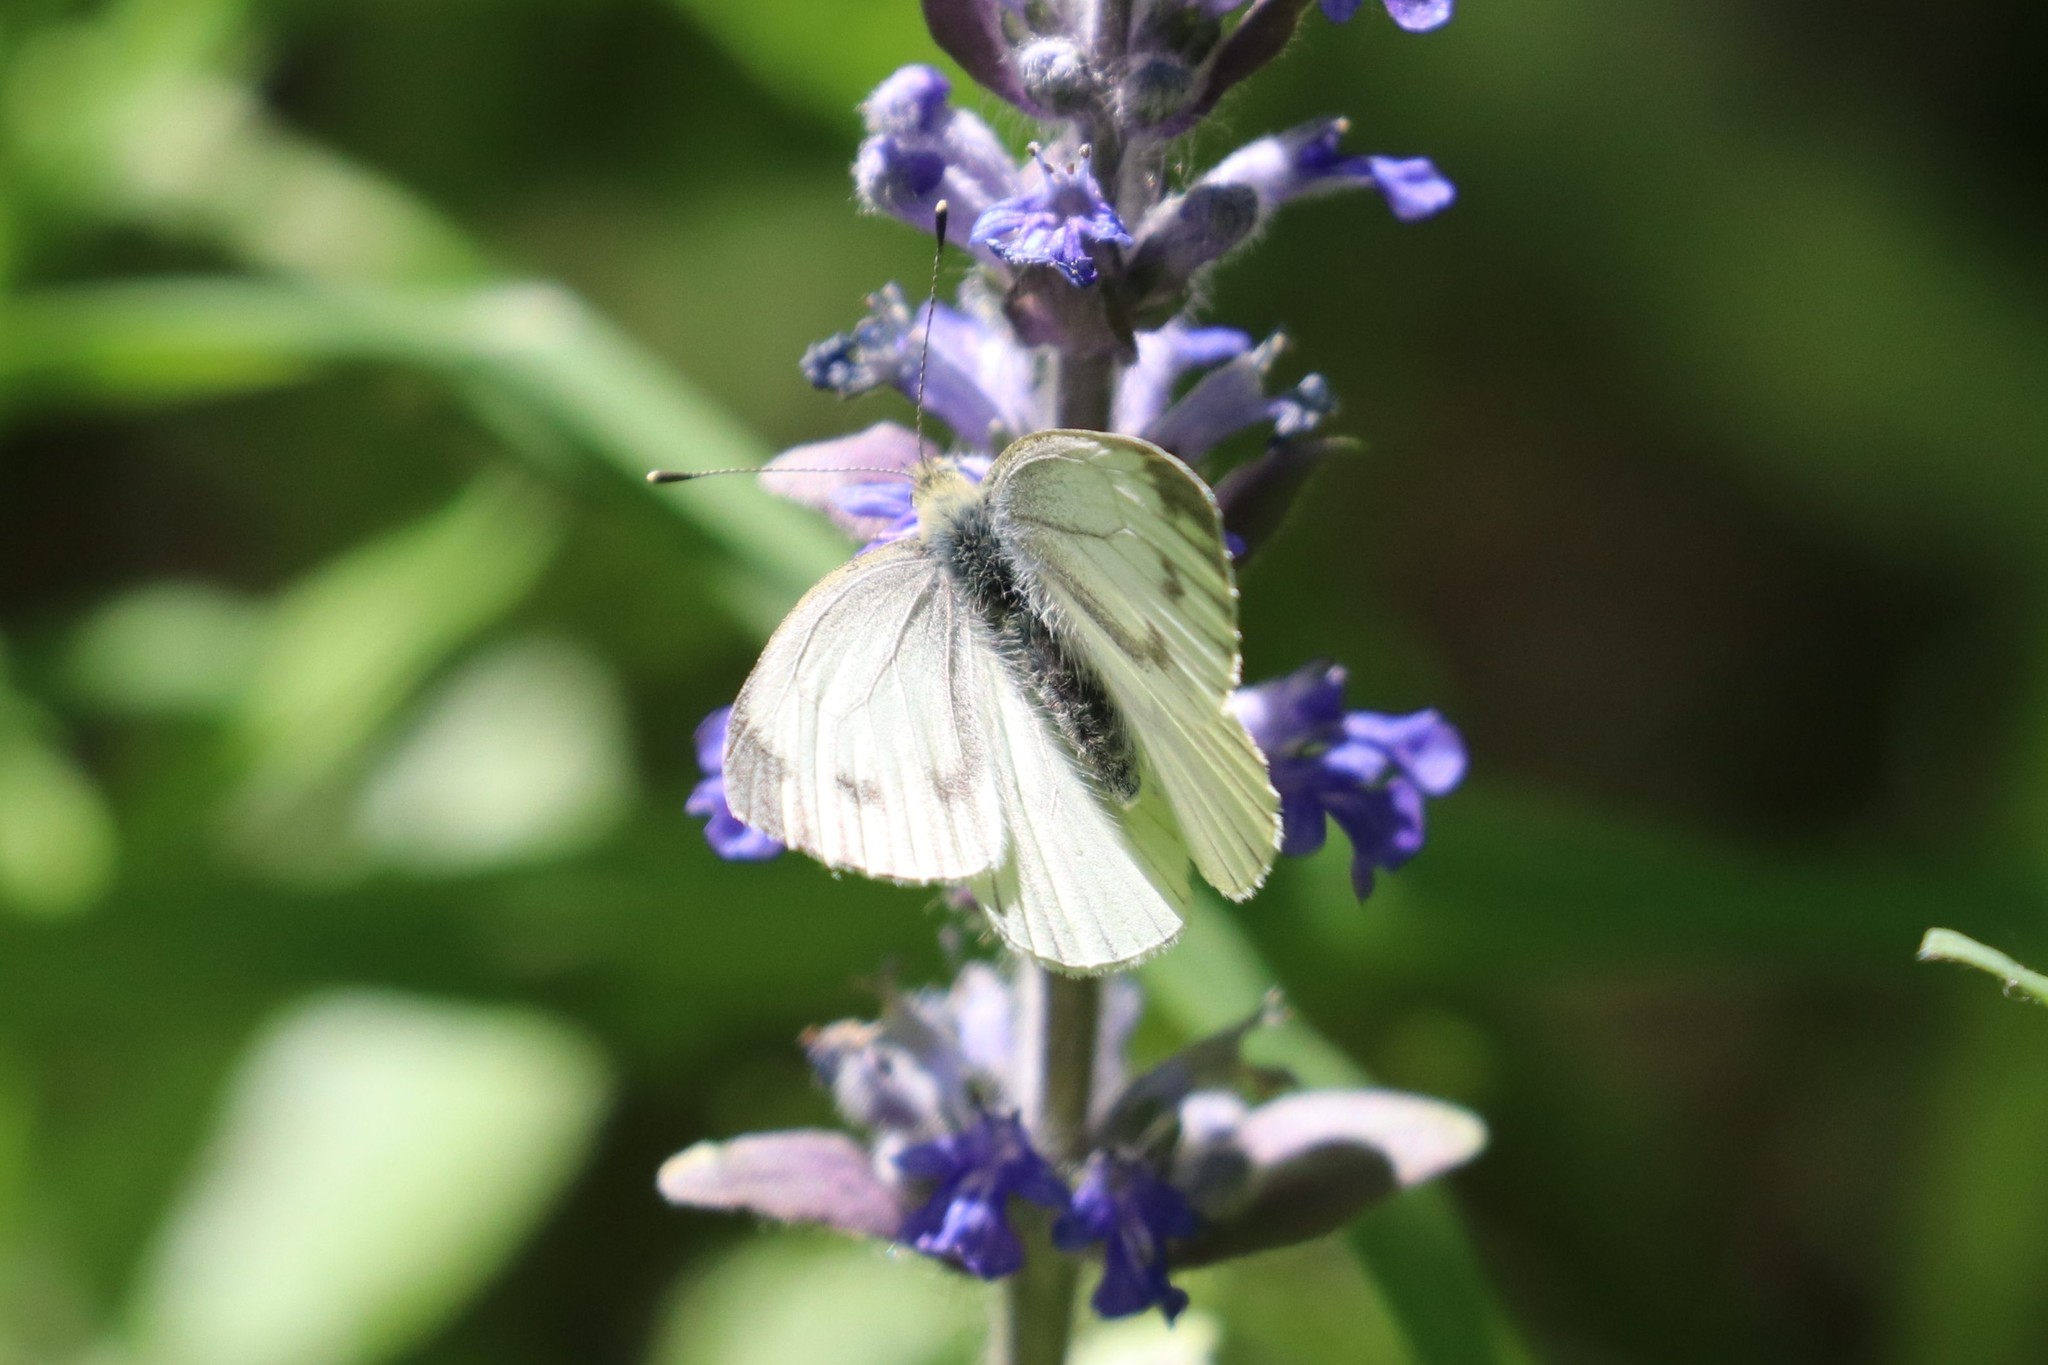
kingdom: Animalia
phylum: Arthropoda
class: Insecta
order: Lepidoptera
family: Pieridae
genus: Pieris
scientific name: Pieris napi
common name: Green-veined white
